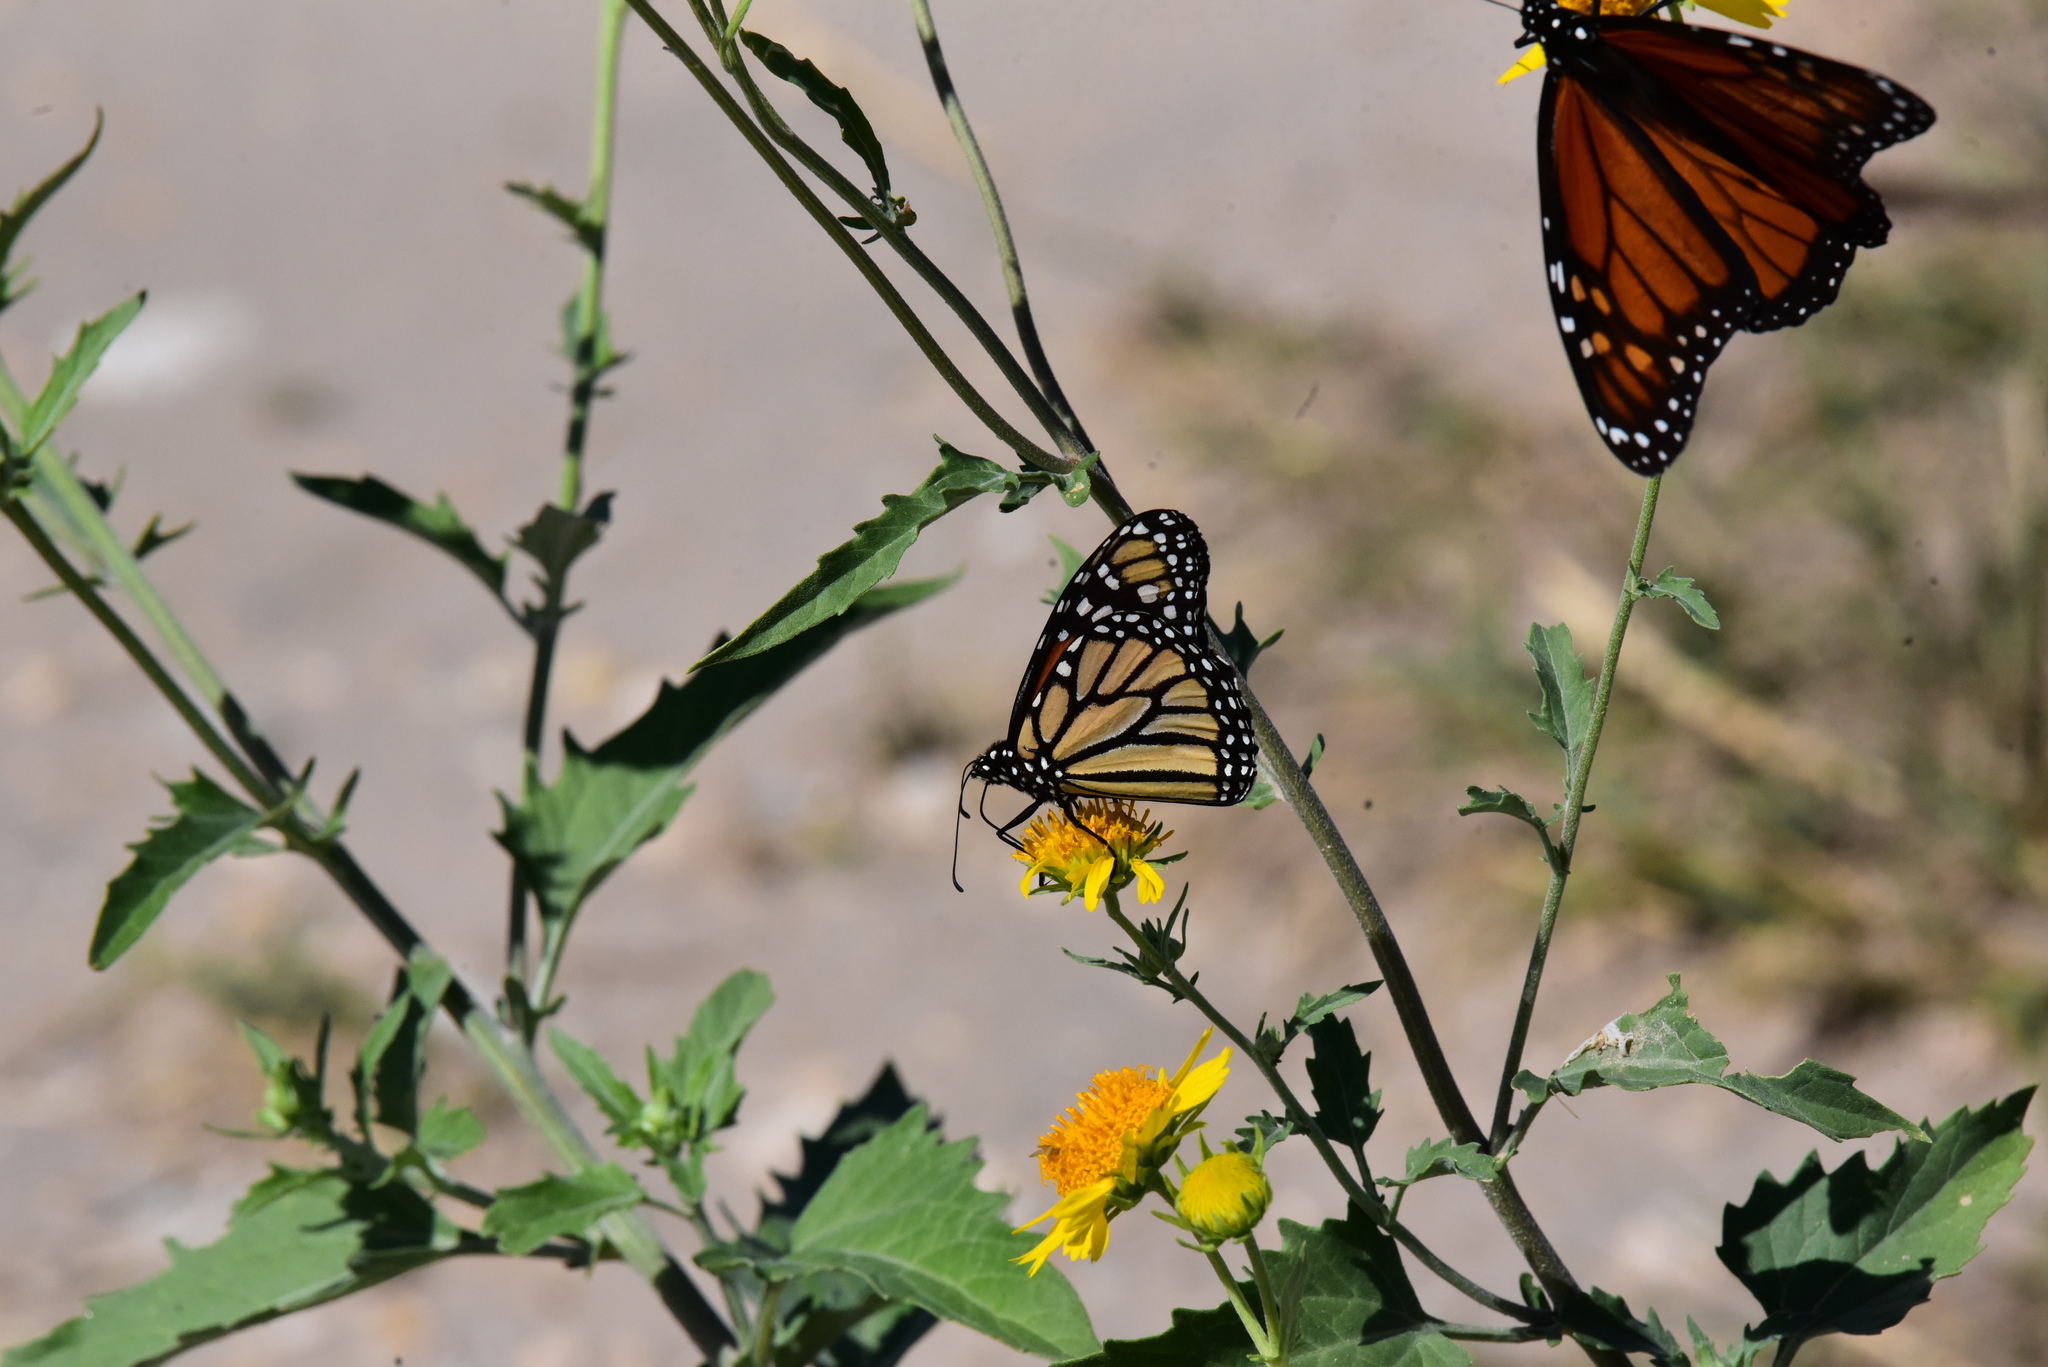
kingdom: Animalia
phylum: Arthropoda
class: Insecta
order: Lepidoptera
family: Nymphalidae
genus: Danaus
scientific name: Danaus plexippus
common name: Monarch
